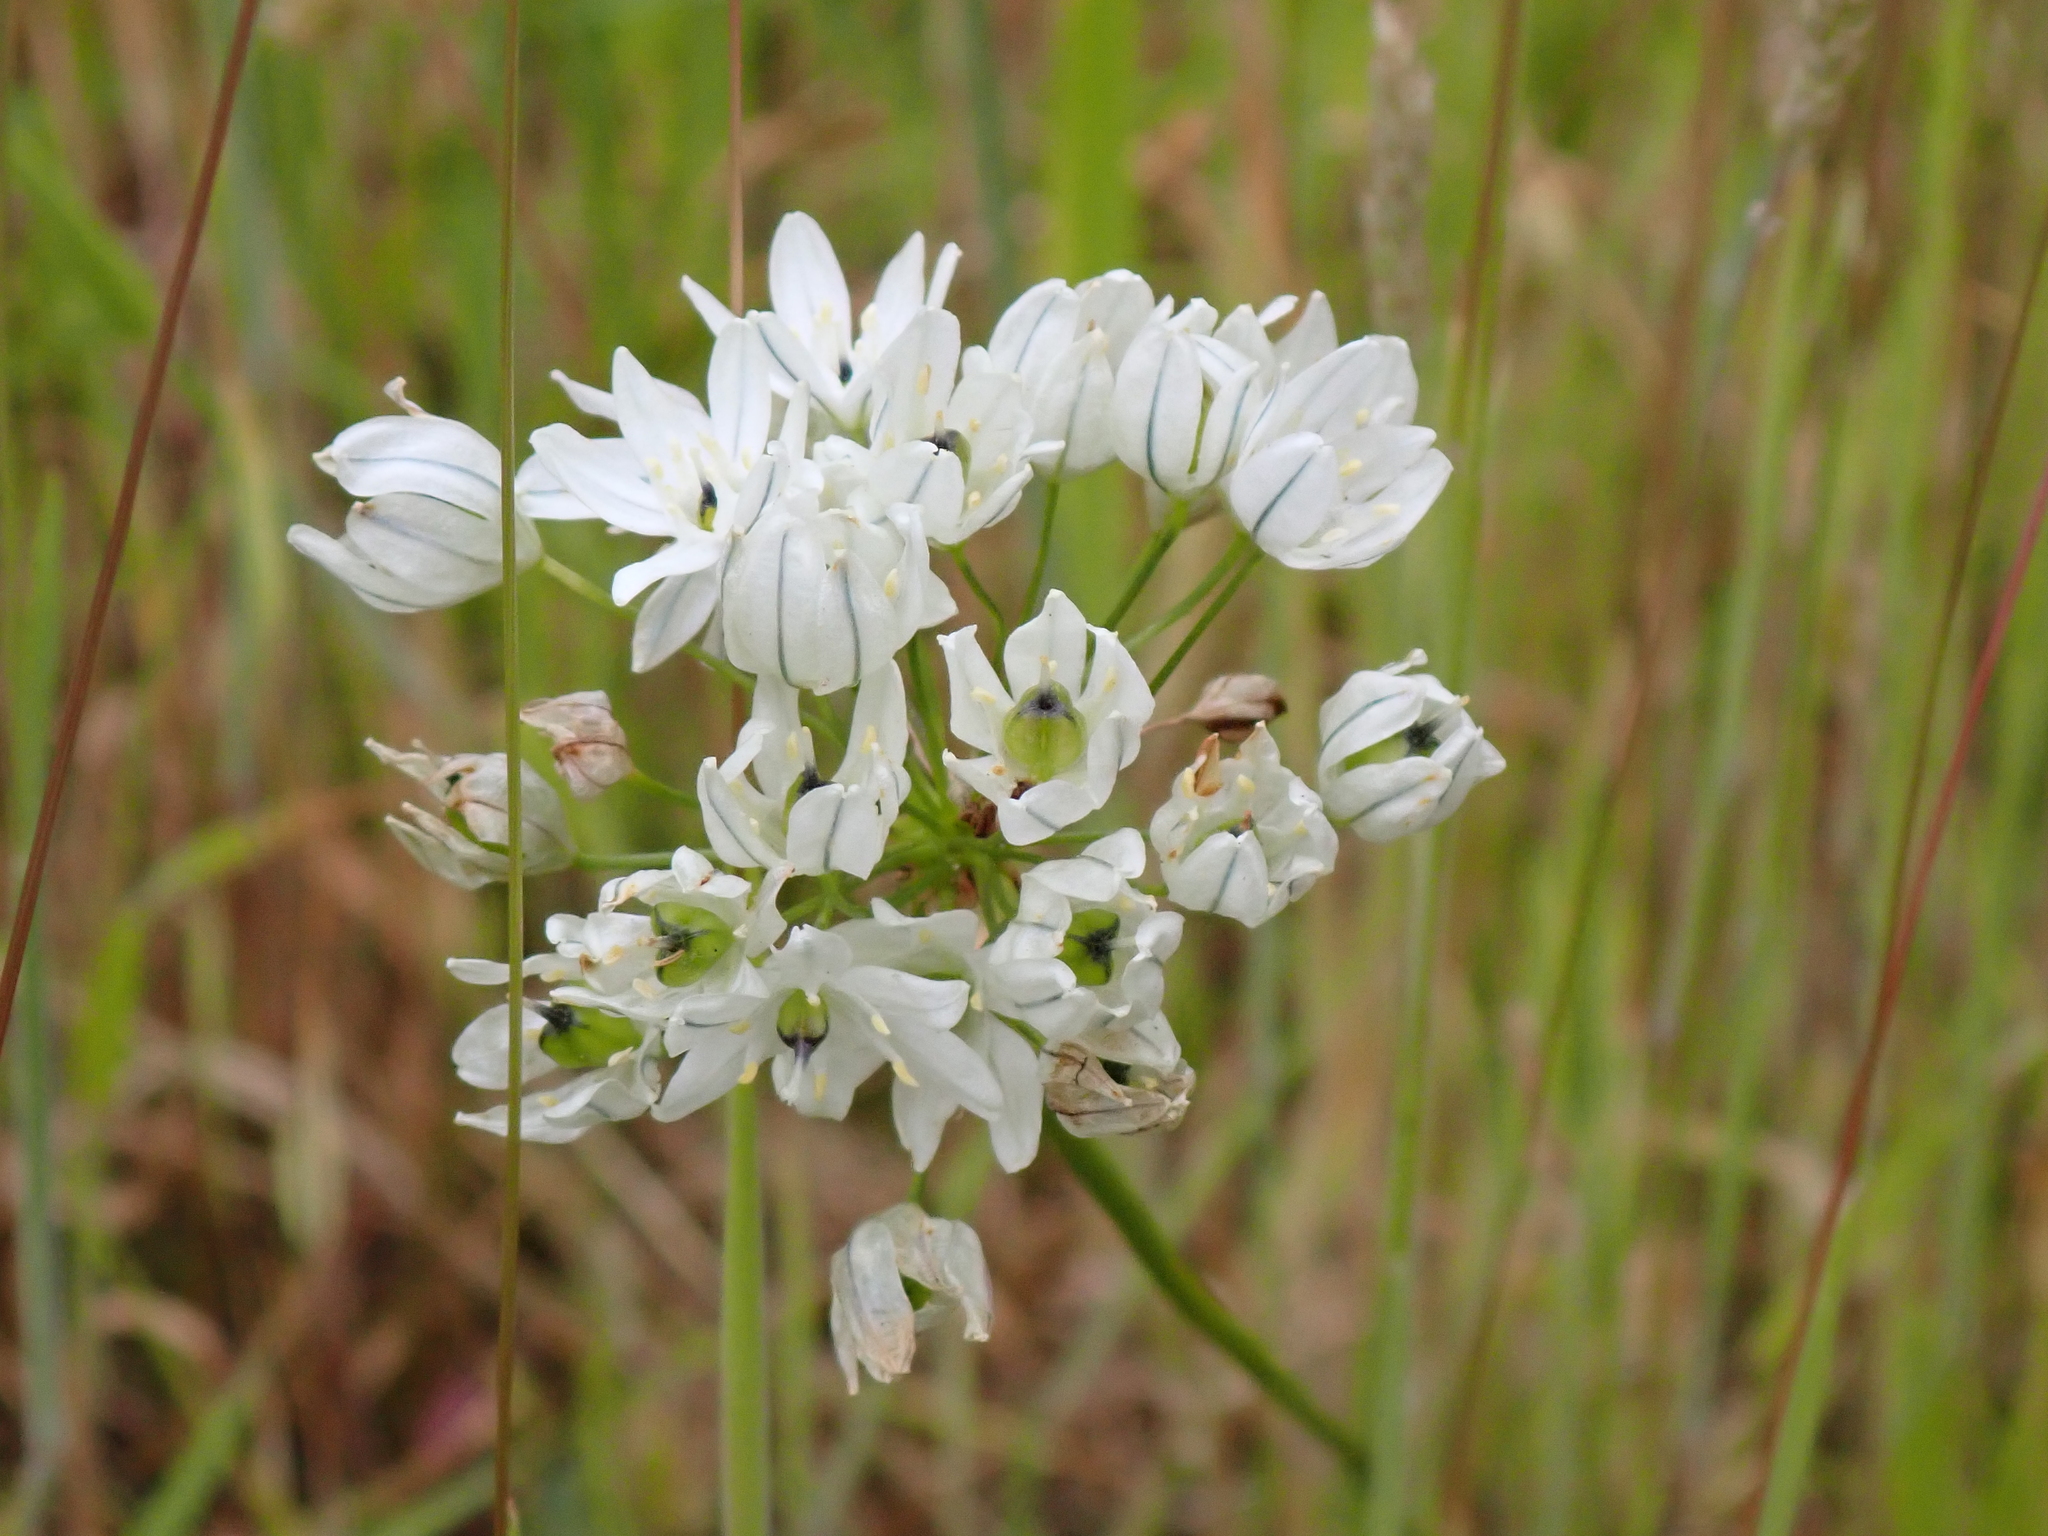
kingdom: Plantae
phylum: Tracheophyta
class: Liliopsida
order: Asparagales
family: Asparagaceae
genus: Triteleia
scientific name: Triteleia hyacinthina
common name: White brodiaea
